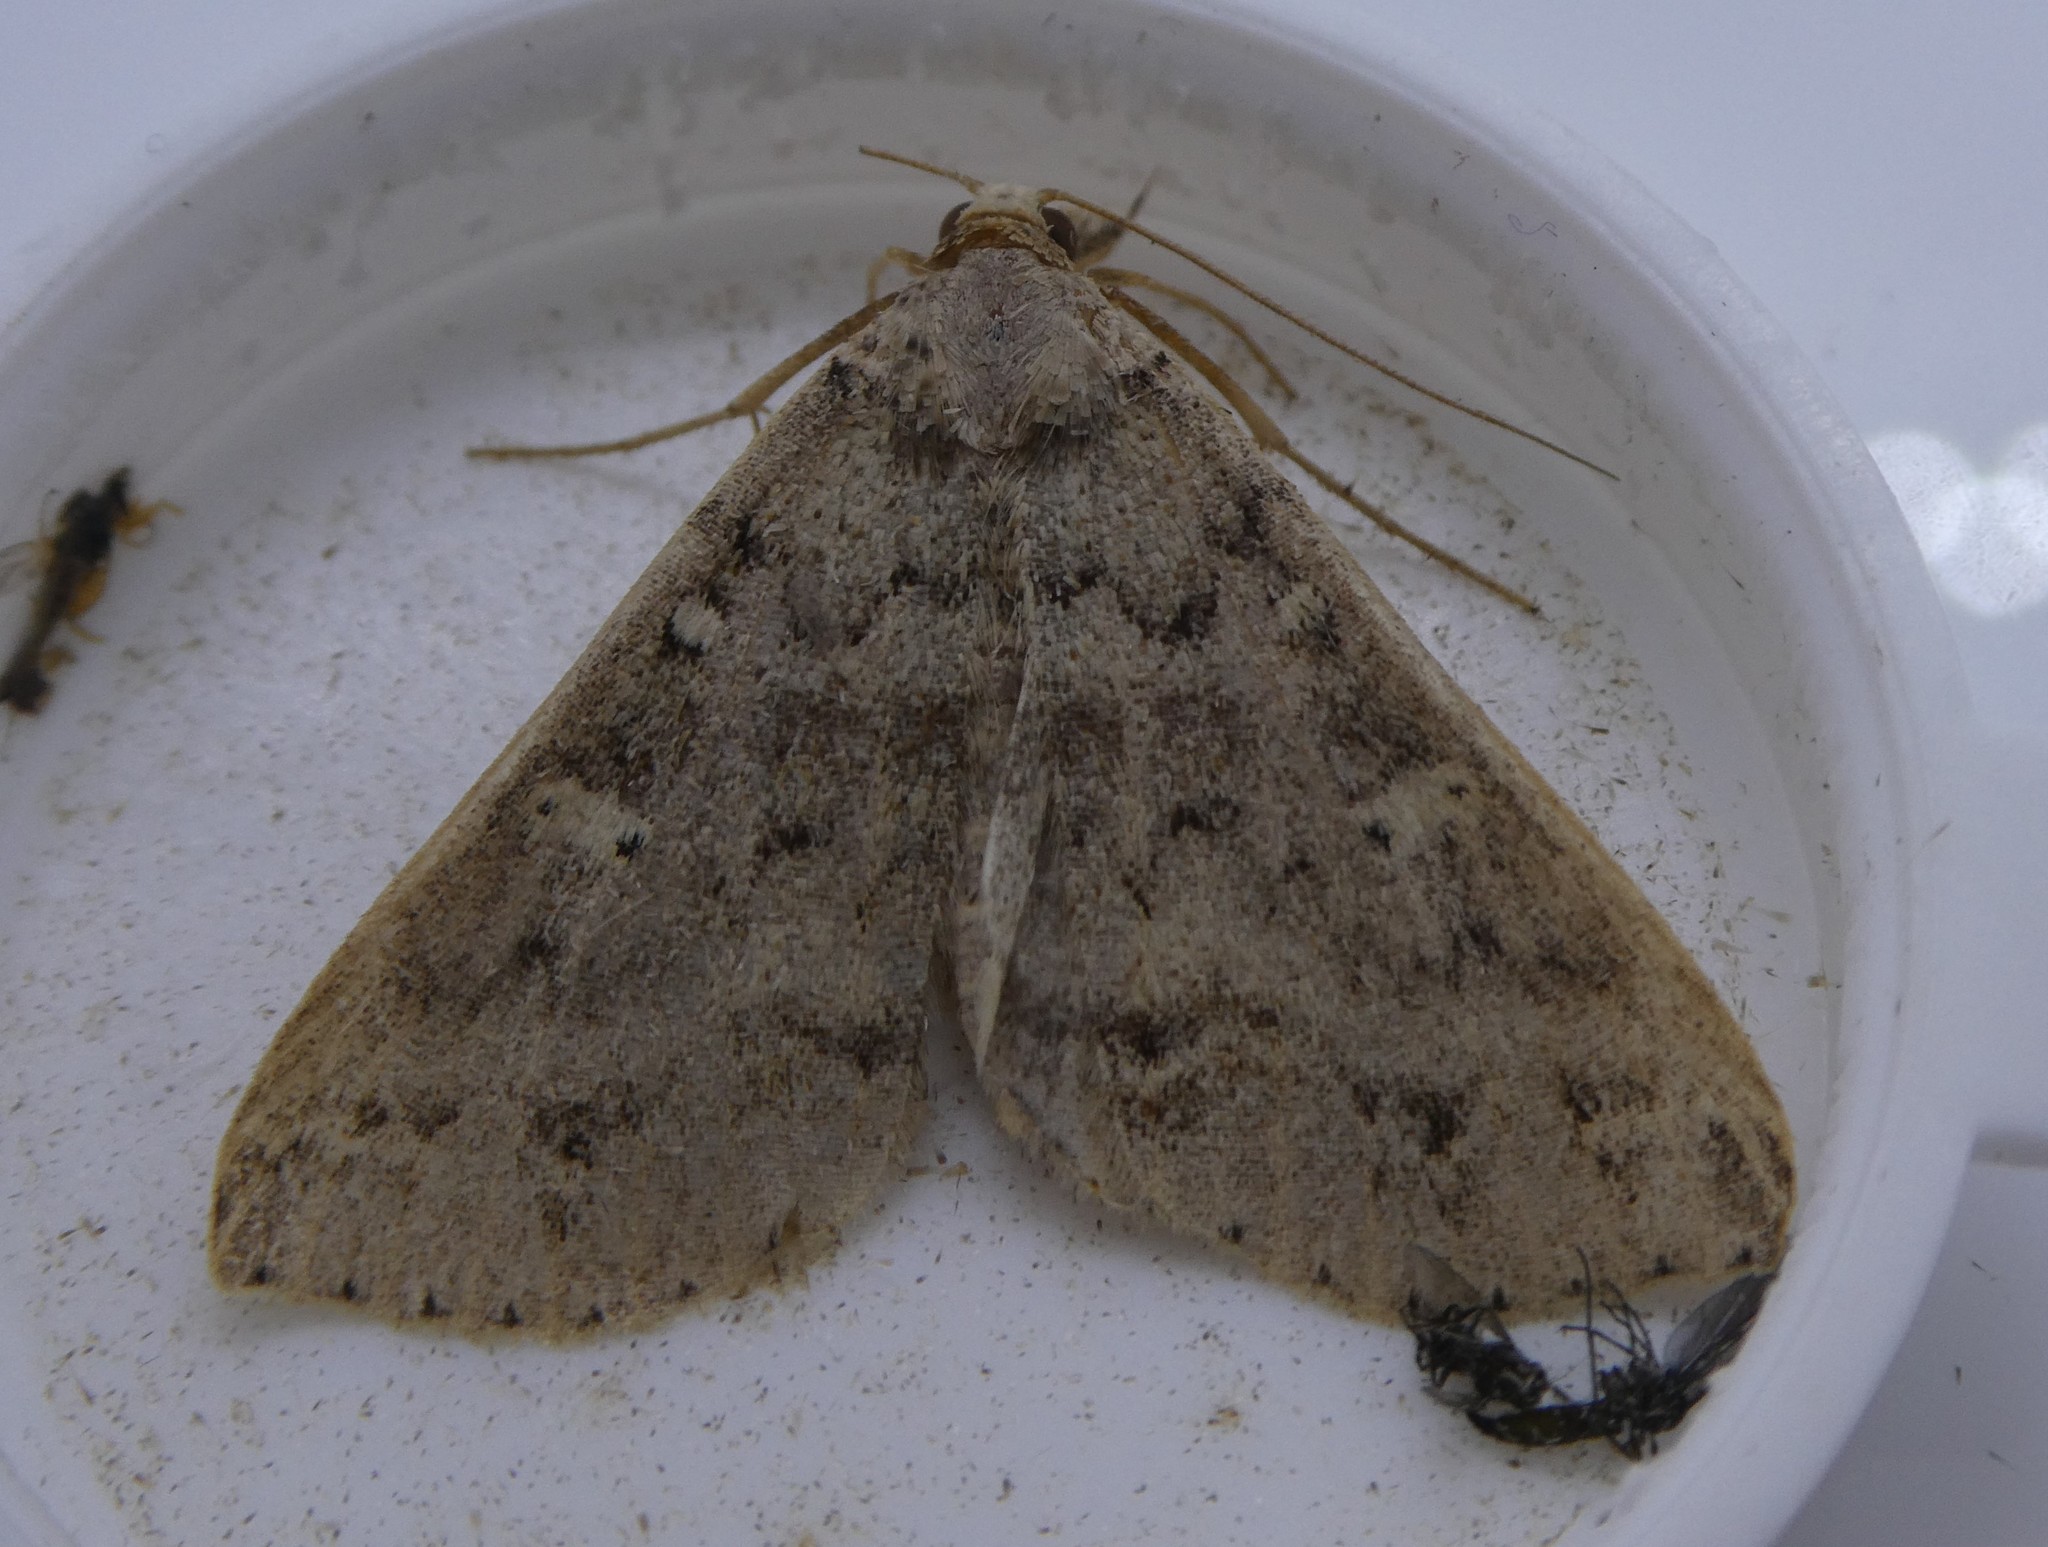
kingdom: Animalia
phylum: Arthropoda
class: Insecta
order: Lepidoptera
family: Erebidae
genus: Renia
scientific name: Renia discoloralis
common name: Discolored renia moth
